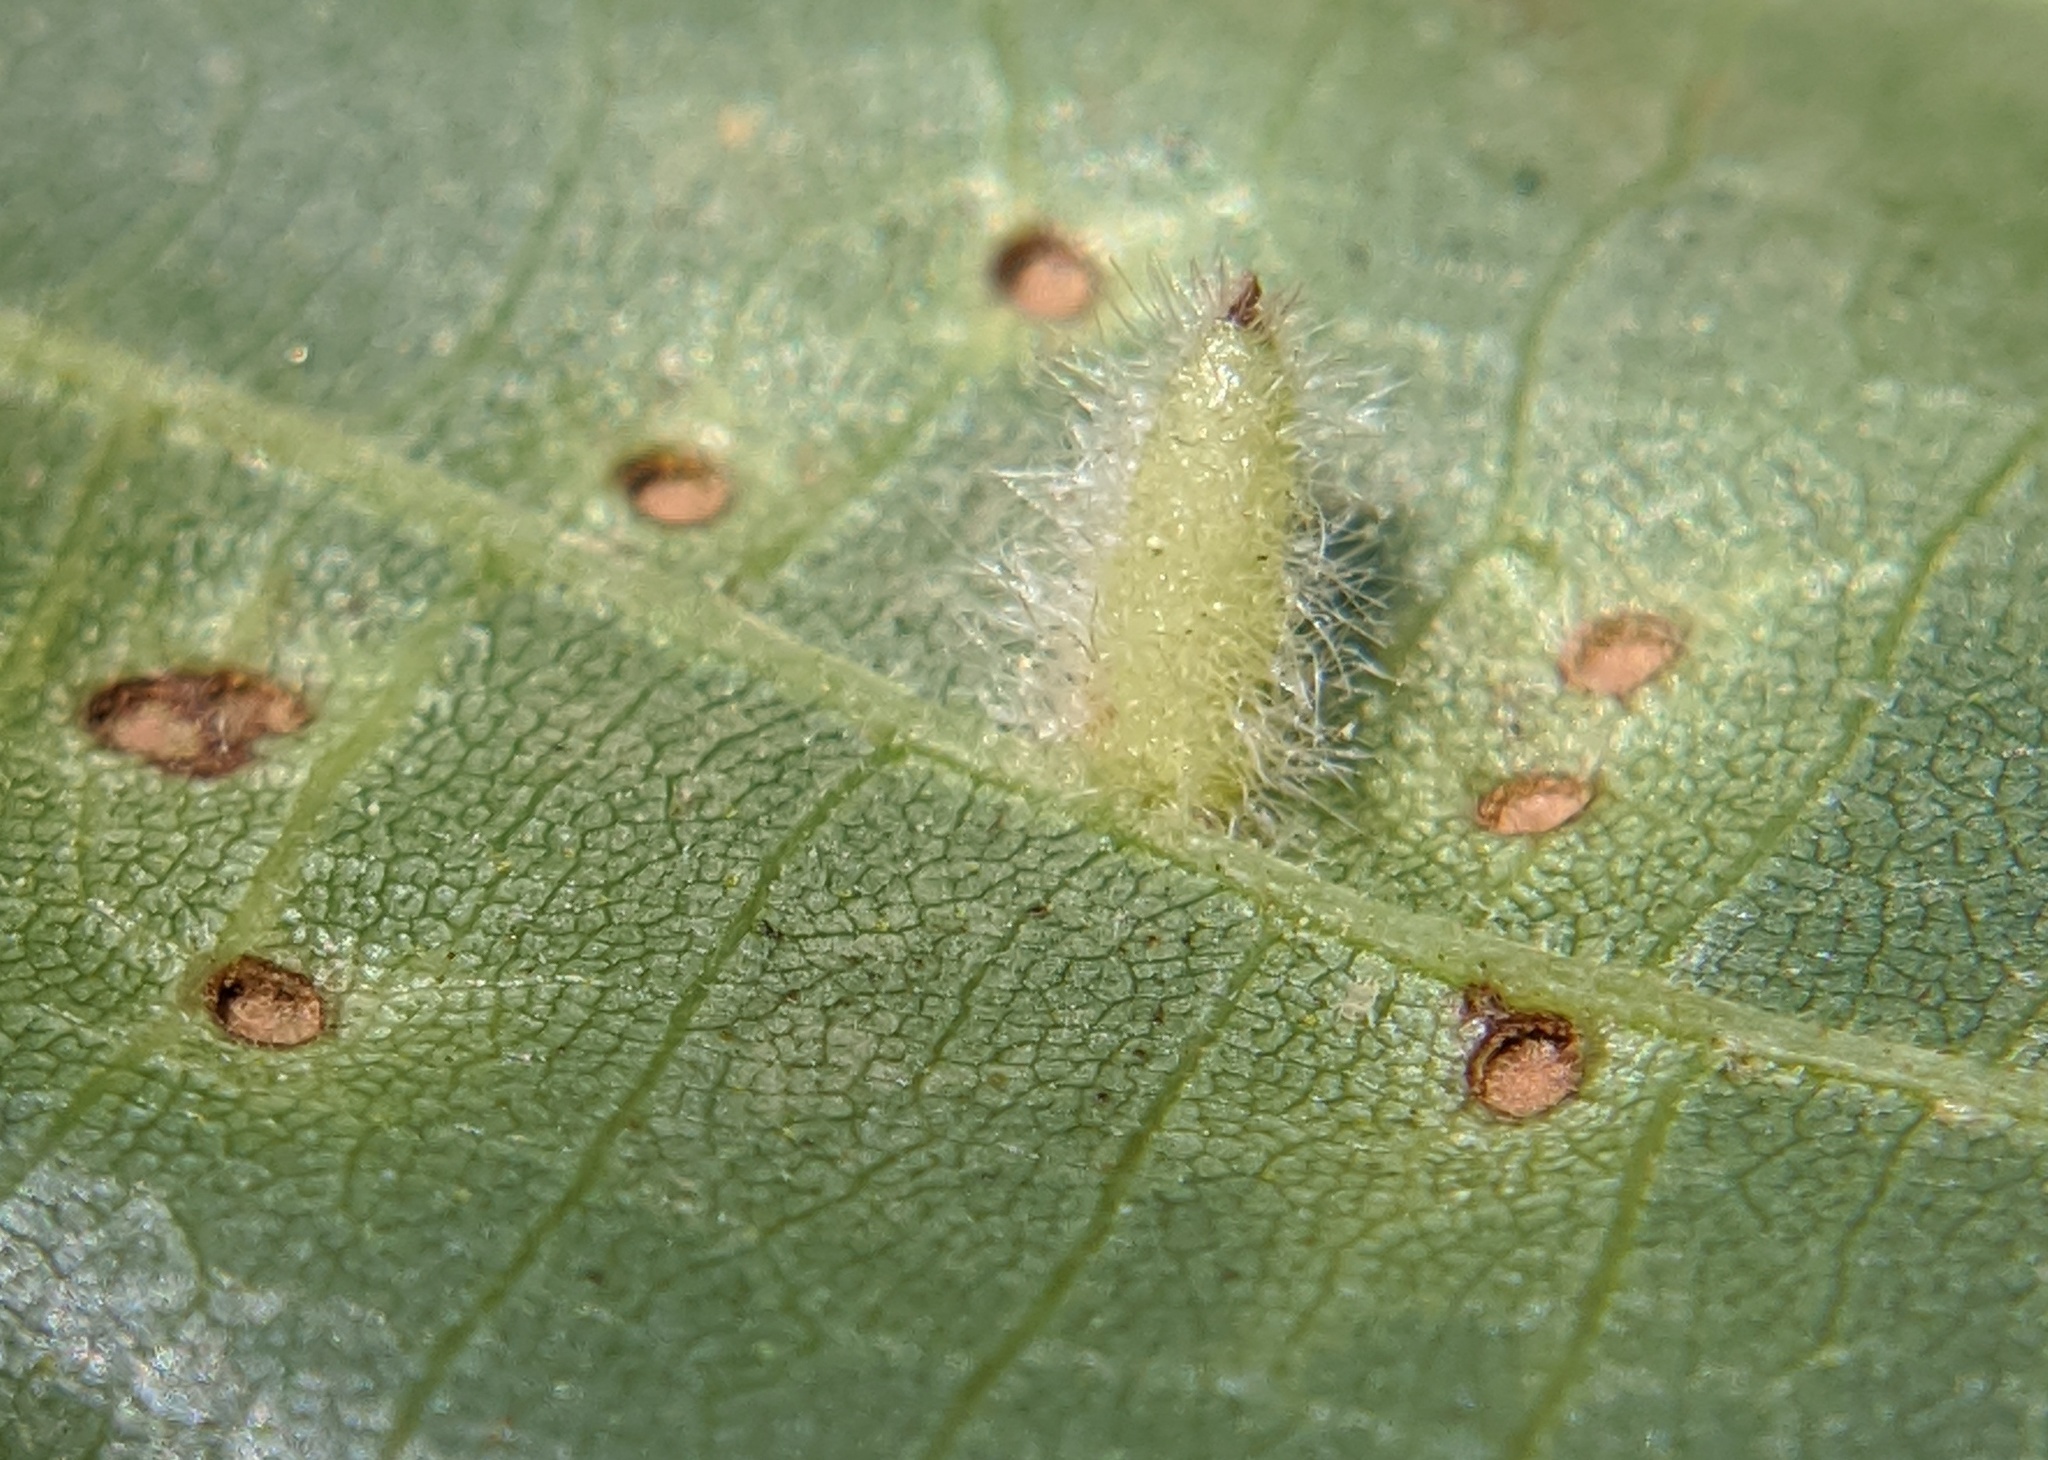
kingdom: Animalia
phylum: Arthropoda
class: Insecta
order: Diptera
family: Cecidomyiidae
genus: Caryomyia
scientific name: Caryomyia albipilosa
